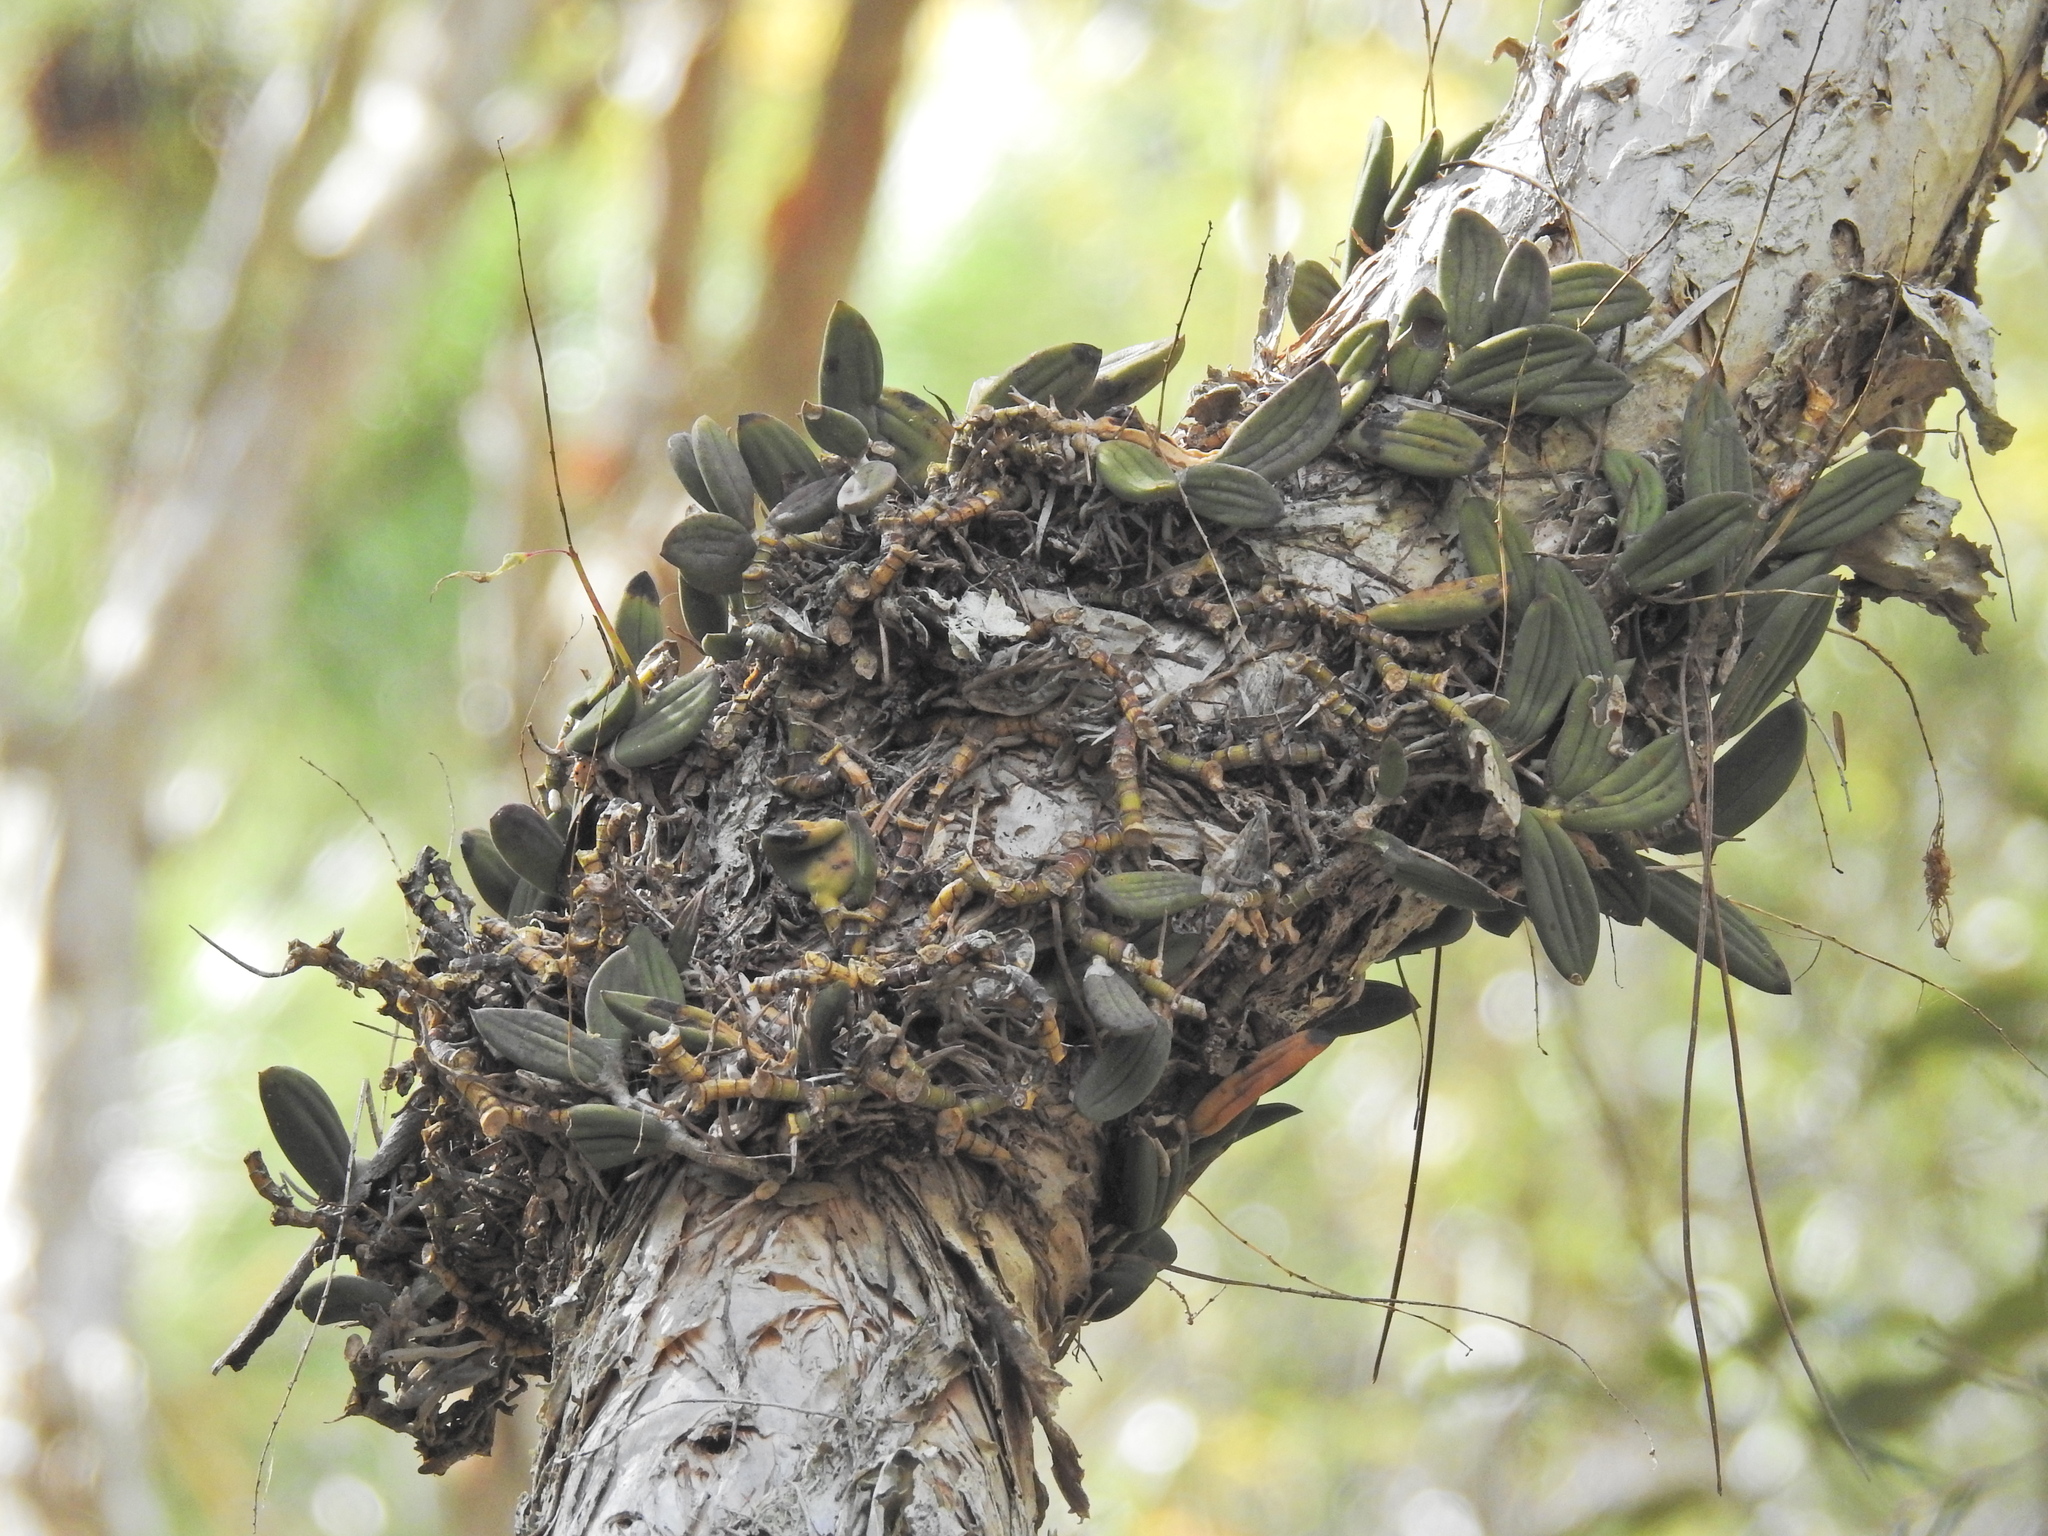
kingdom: Plantae
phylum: Tracheophyta
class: Liliopsida
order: Asparagales
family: Orchidaceae
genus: Dendrobium
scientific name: Dendrobium linguiforme
